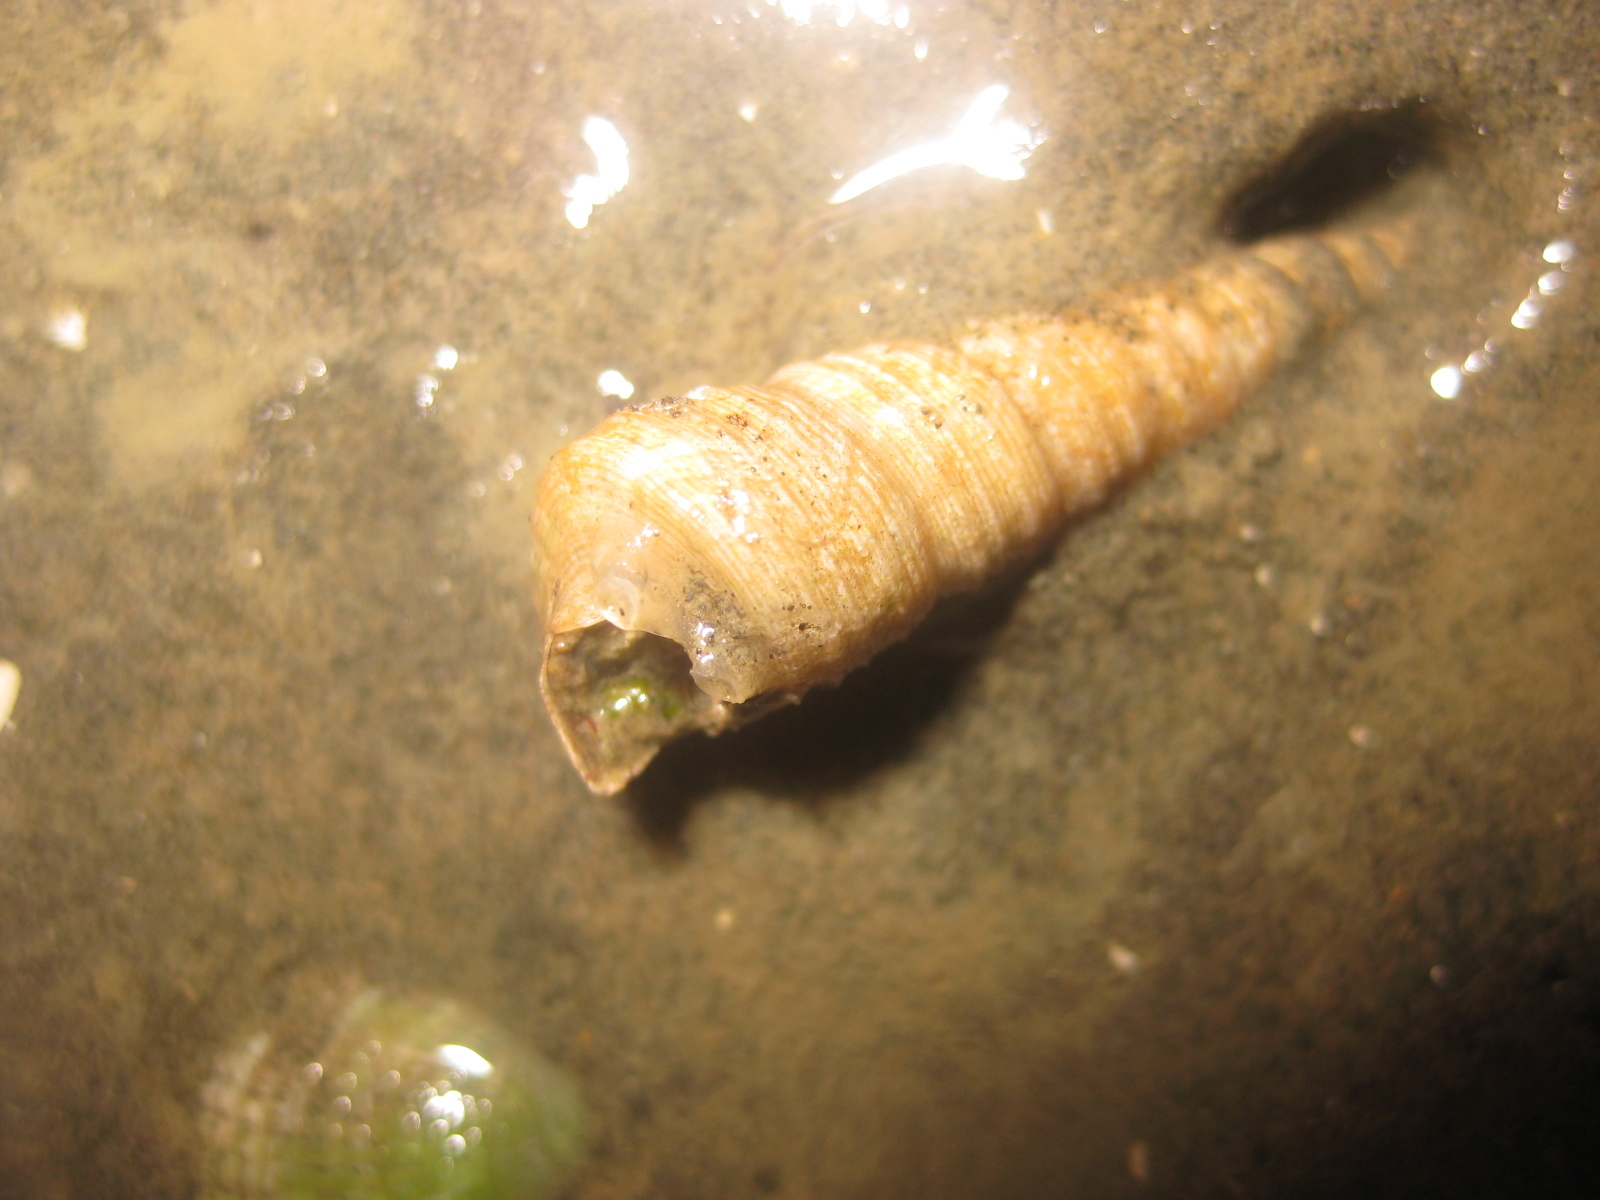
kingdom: Animalia
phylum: Mollusca
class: Gastropoda
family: Turritellidae
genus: Maoricolpus
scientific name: Maoricolpus roseus
